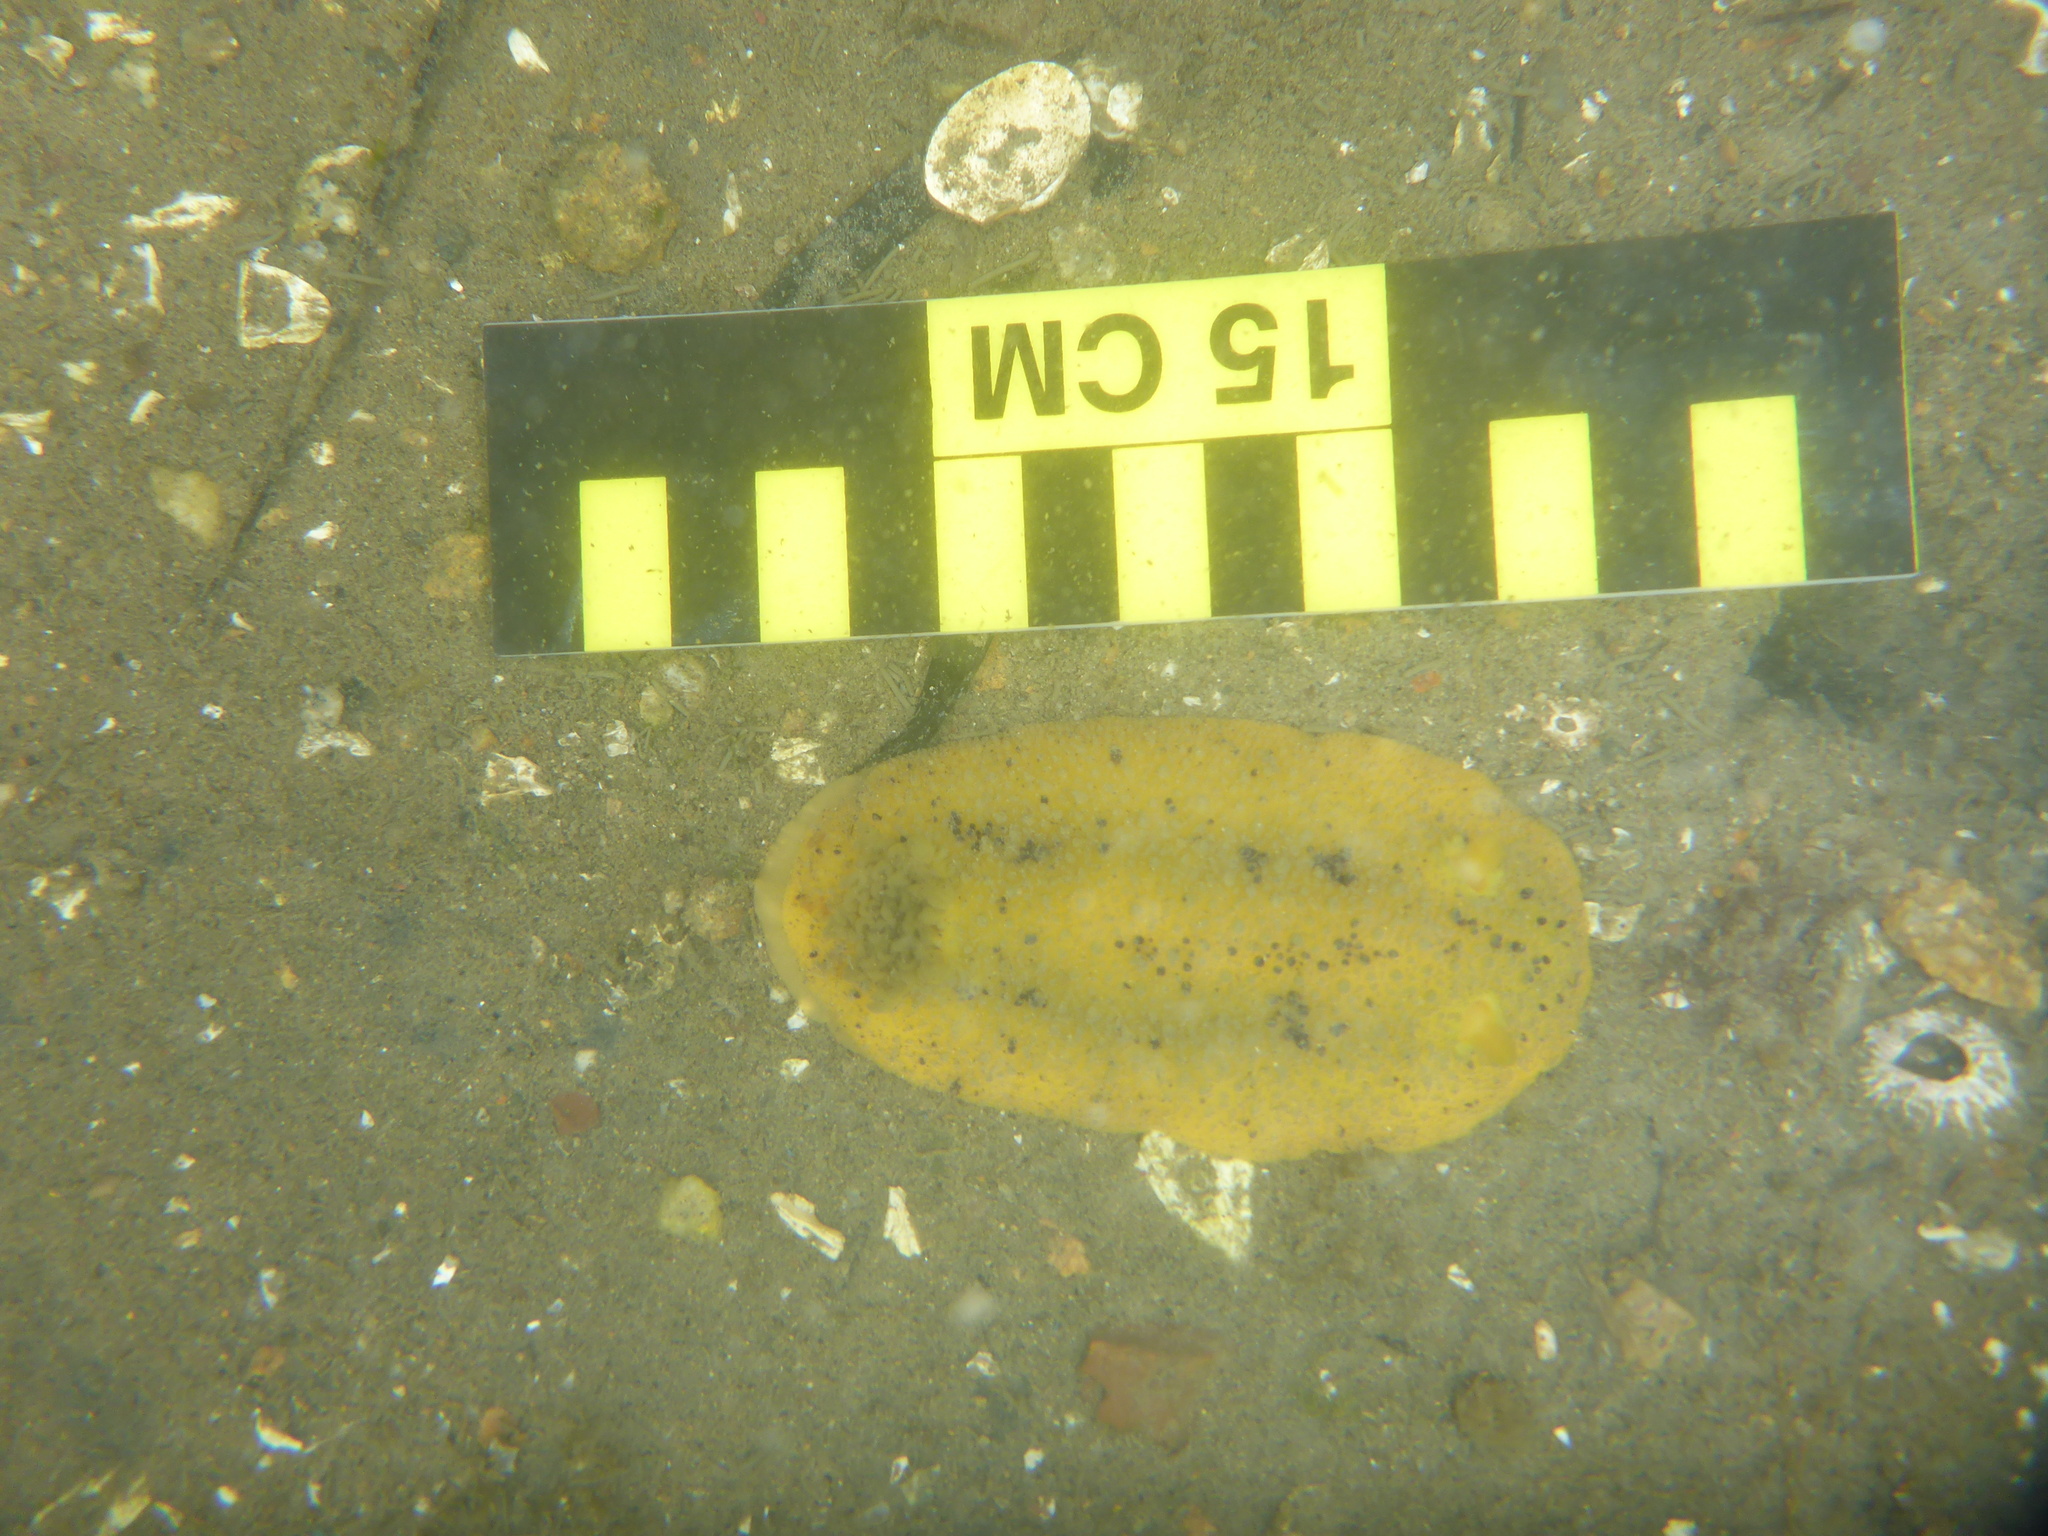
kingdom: Animalia
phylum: Mollusca
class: Gastropoda
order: Nudibranchia
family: Dorididae
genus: Doris
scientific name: Doris montereyensis
